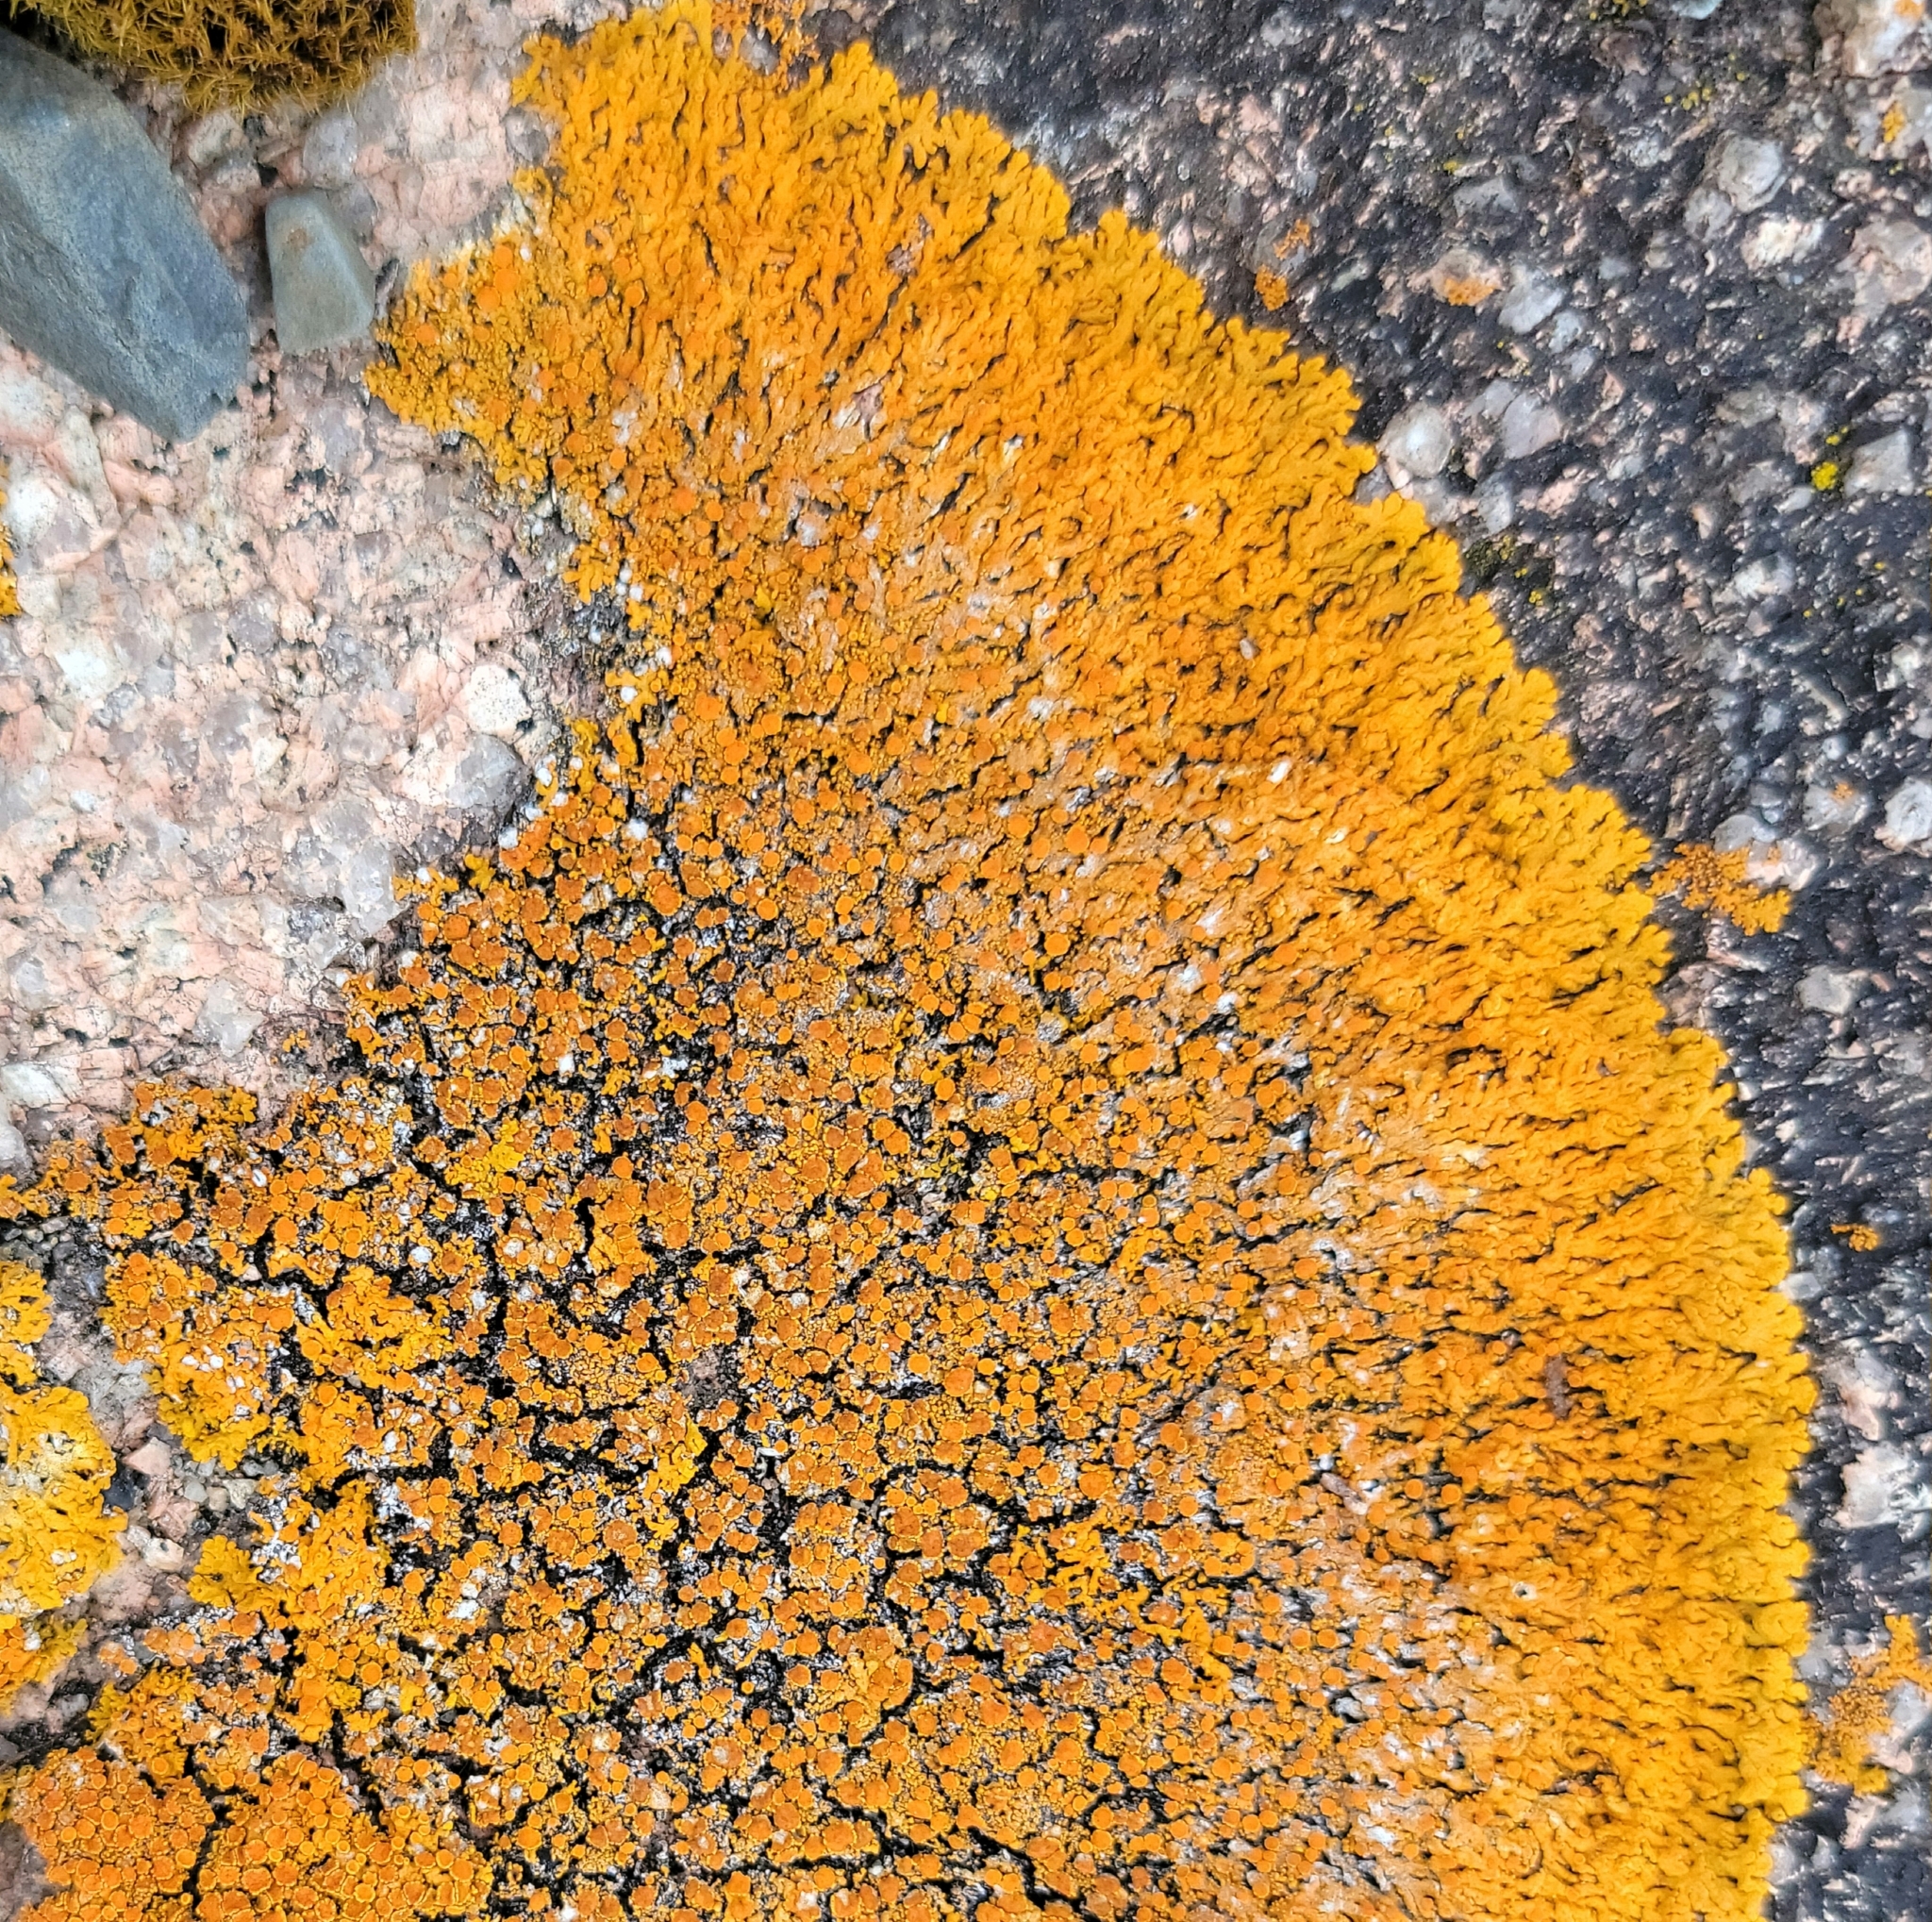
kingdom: Fungi
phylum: Ascomycota
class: Lecanoromycetes
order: Teloschistales
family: Teloschistaceae
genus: Xanthoria
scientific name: Xanthoria elegans
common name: Elegant sunburst lichen
